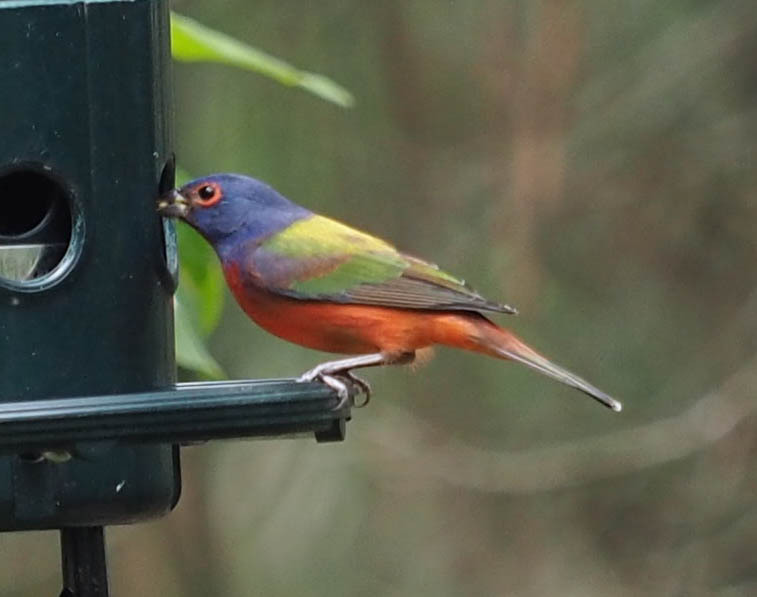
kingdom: Animalia
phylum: Chordata
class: Aves
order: Passeriformes
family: Cardinalidae
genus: Passerina
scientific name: Passerina ciris
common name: Painted bunting
